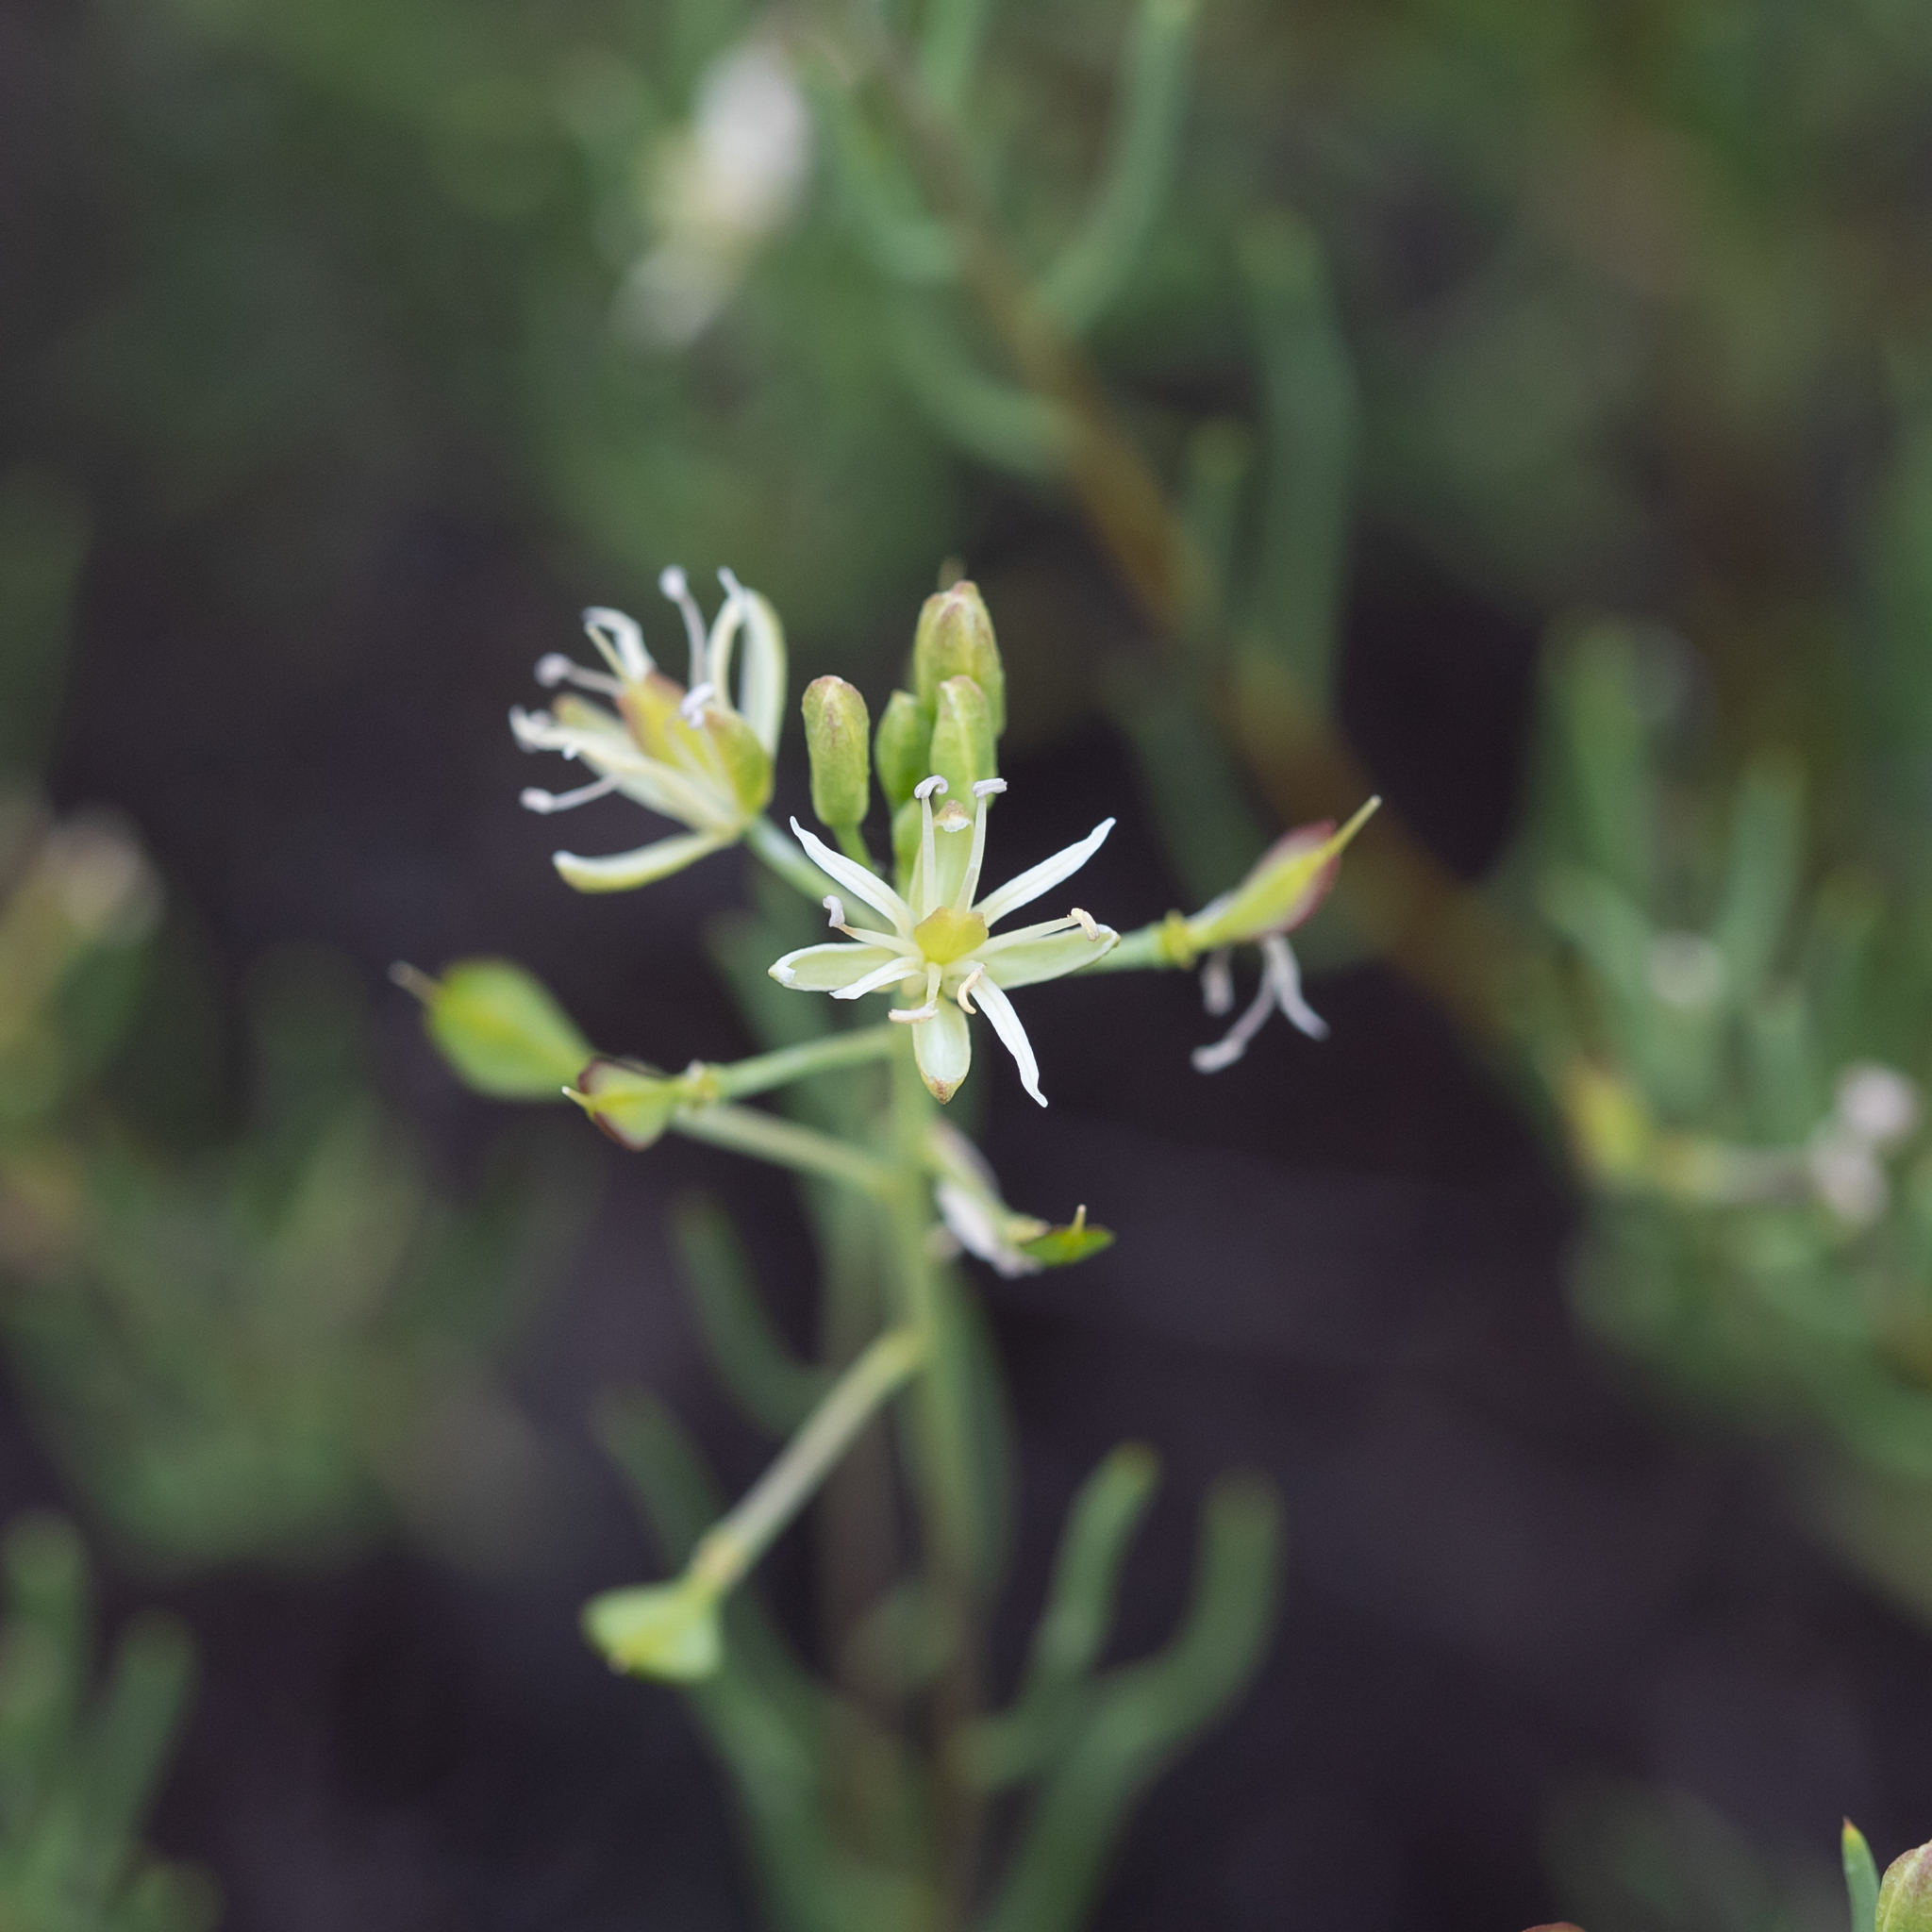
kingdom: Plantae
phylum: Tracheophyta
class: Magnoliopsida
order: Brassicales
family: Brassicaceae
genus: Lepidium
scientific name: Lepidium leptopetalum
